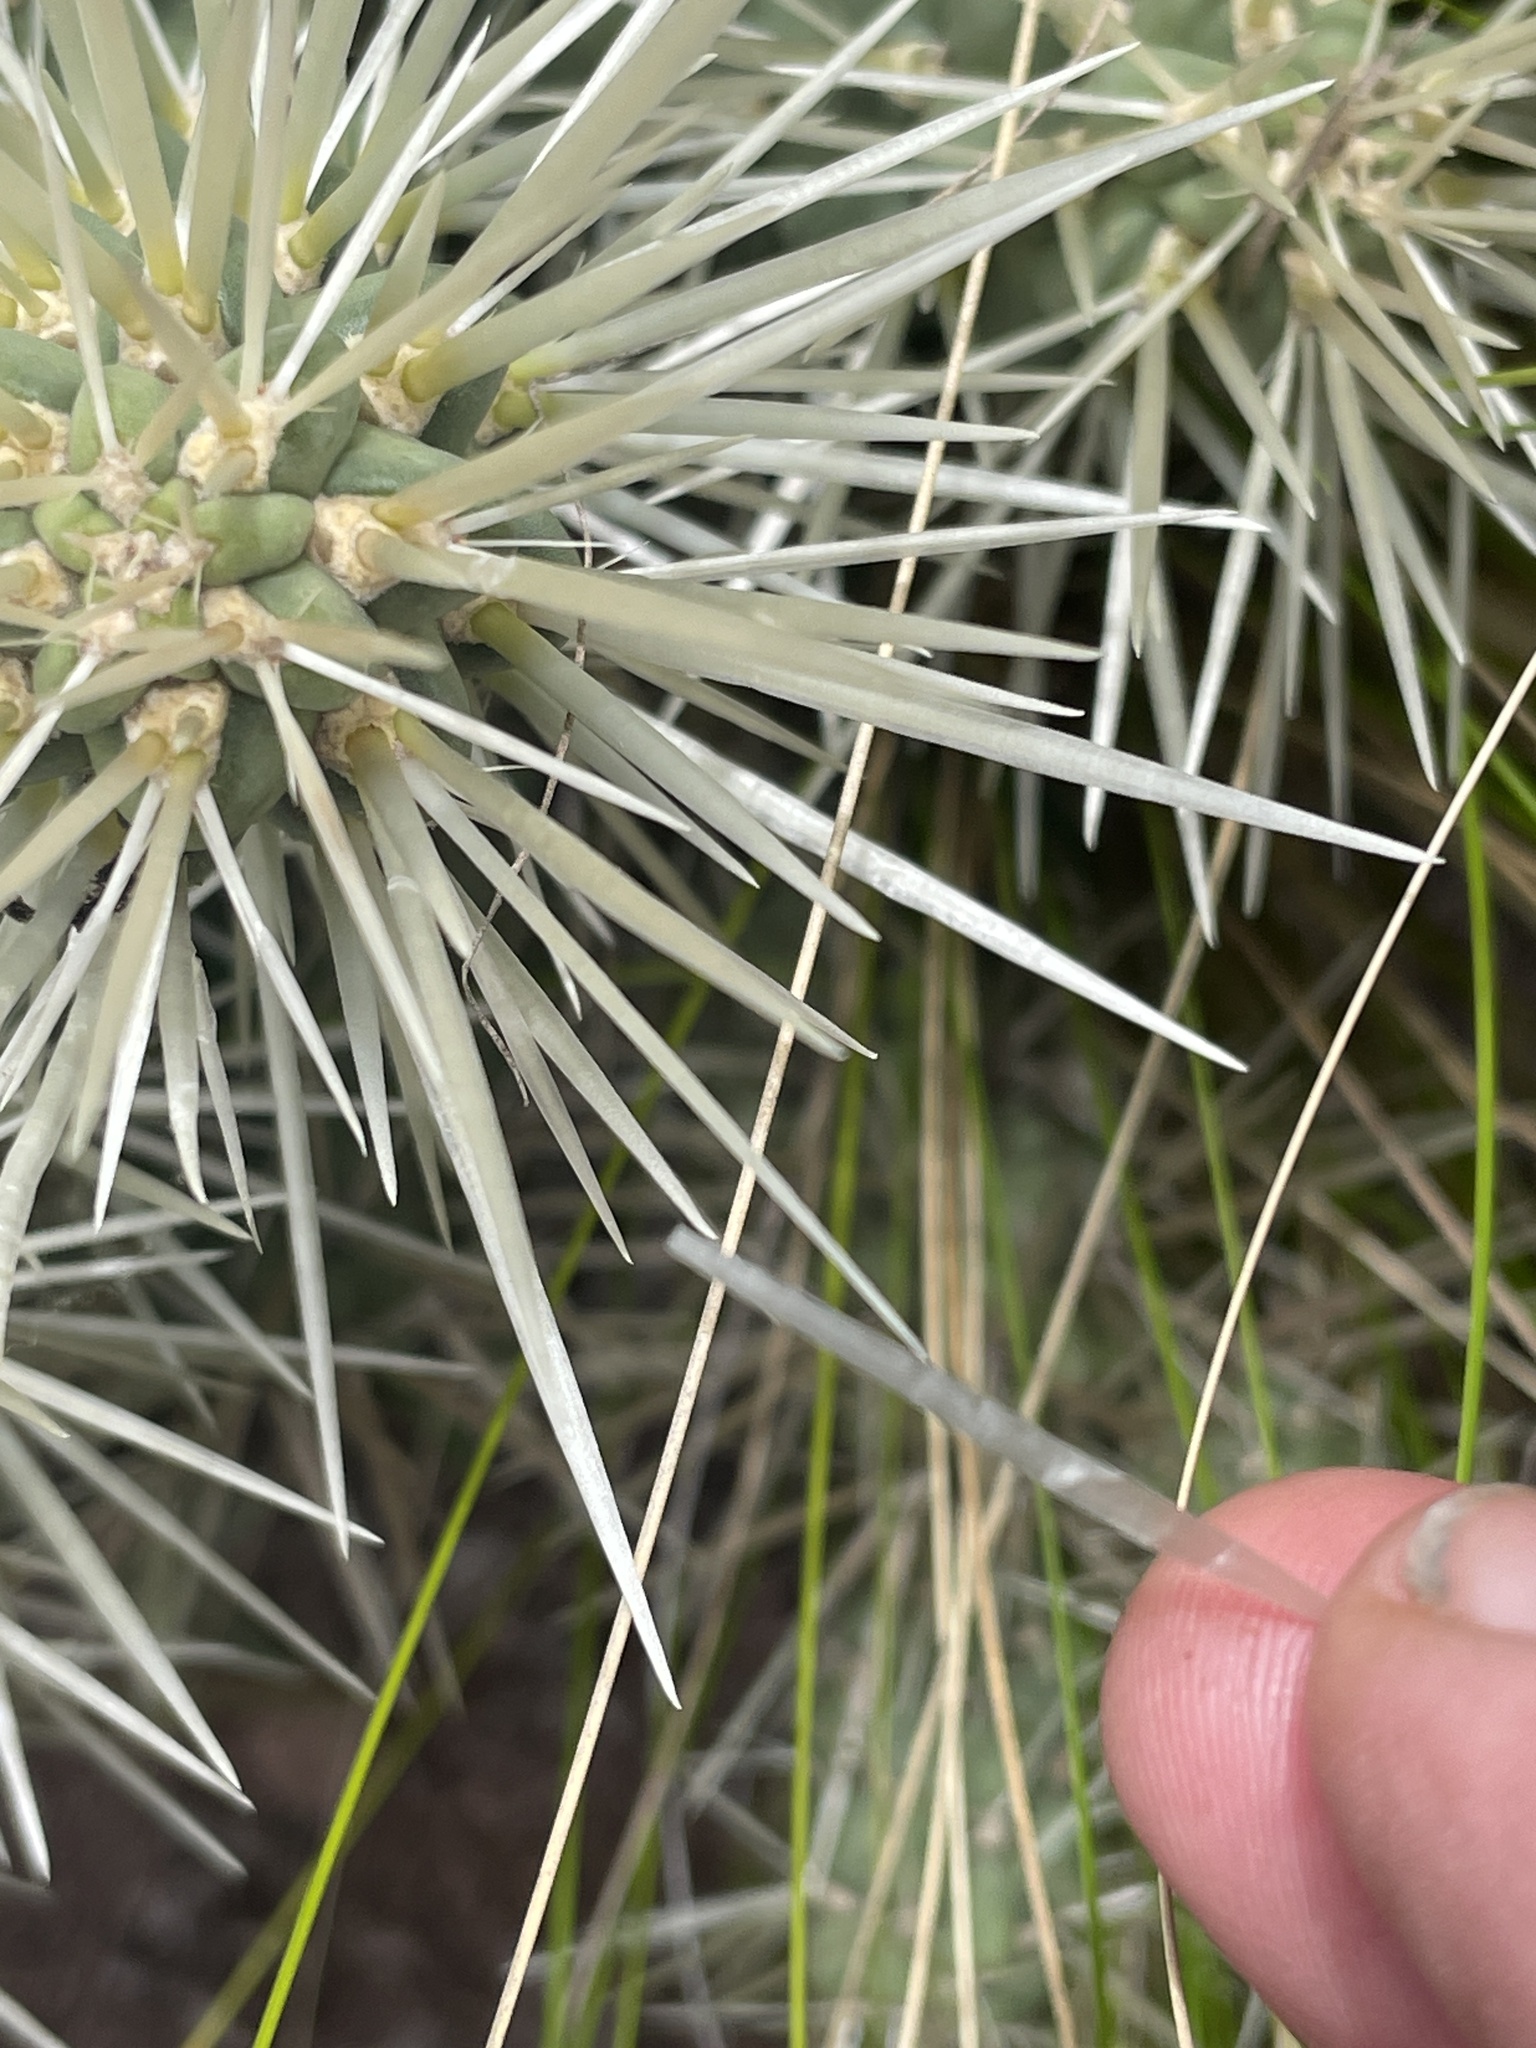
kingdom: Plantae
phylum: Tracheophyta
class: Magnoliopsida
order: Caryophyllales
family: Cactaceae
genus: Cylindropuntia
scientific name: Cylindropuntia tunicata
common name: Sheathed cholla
